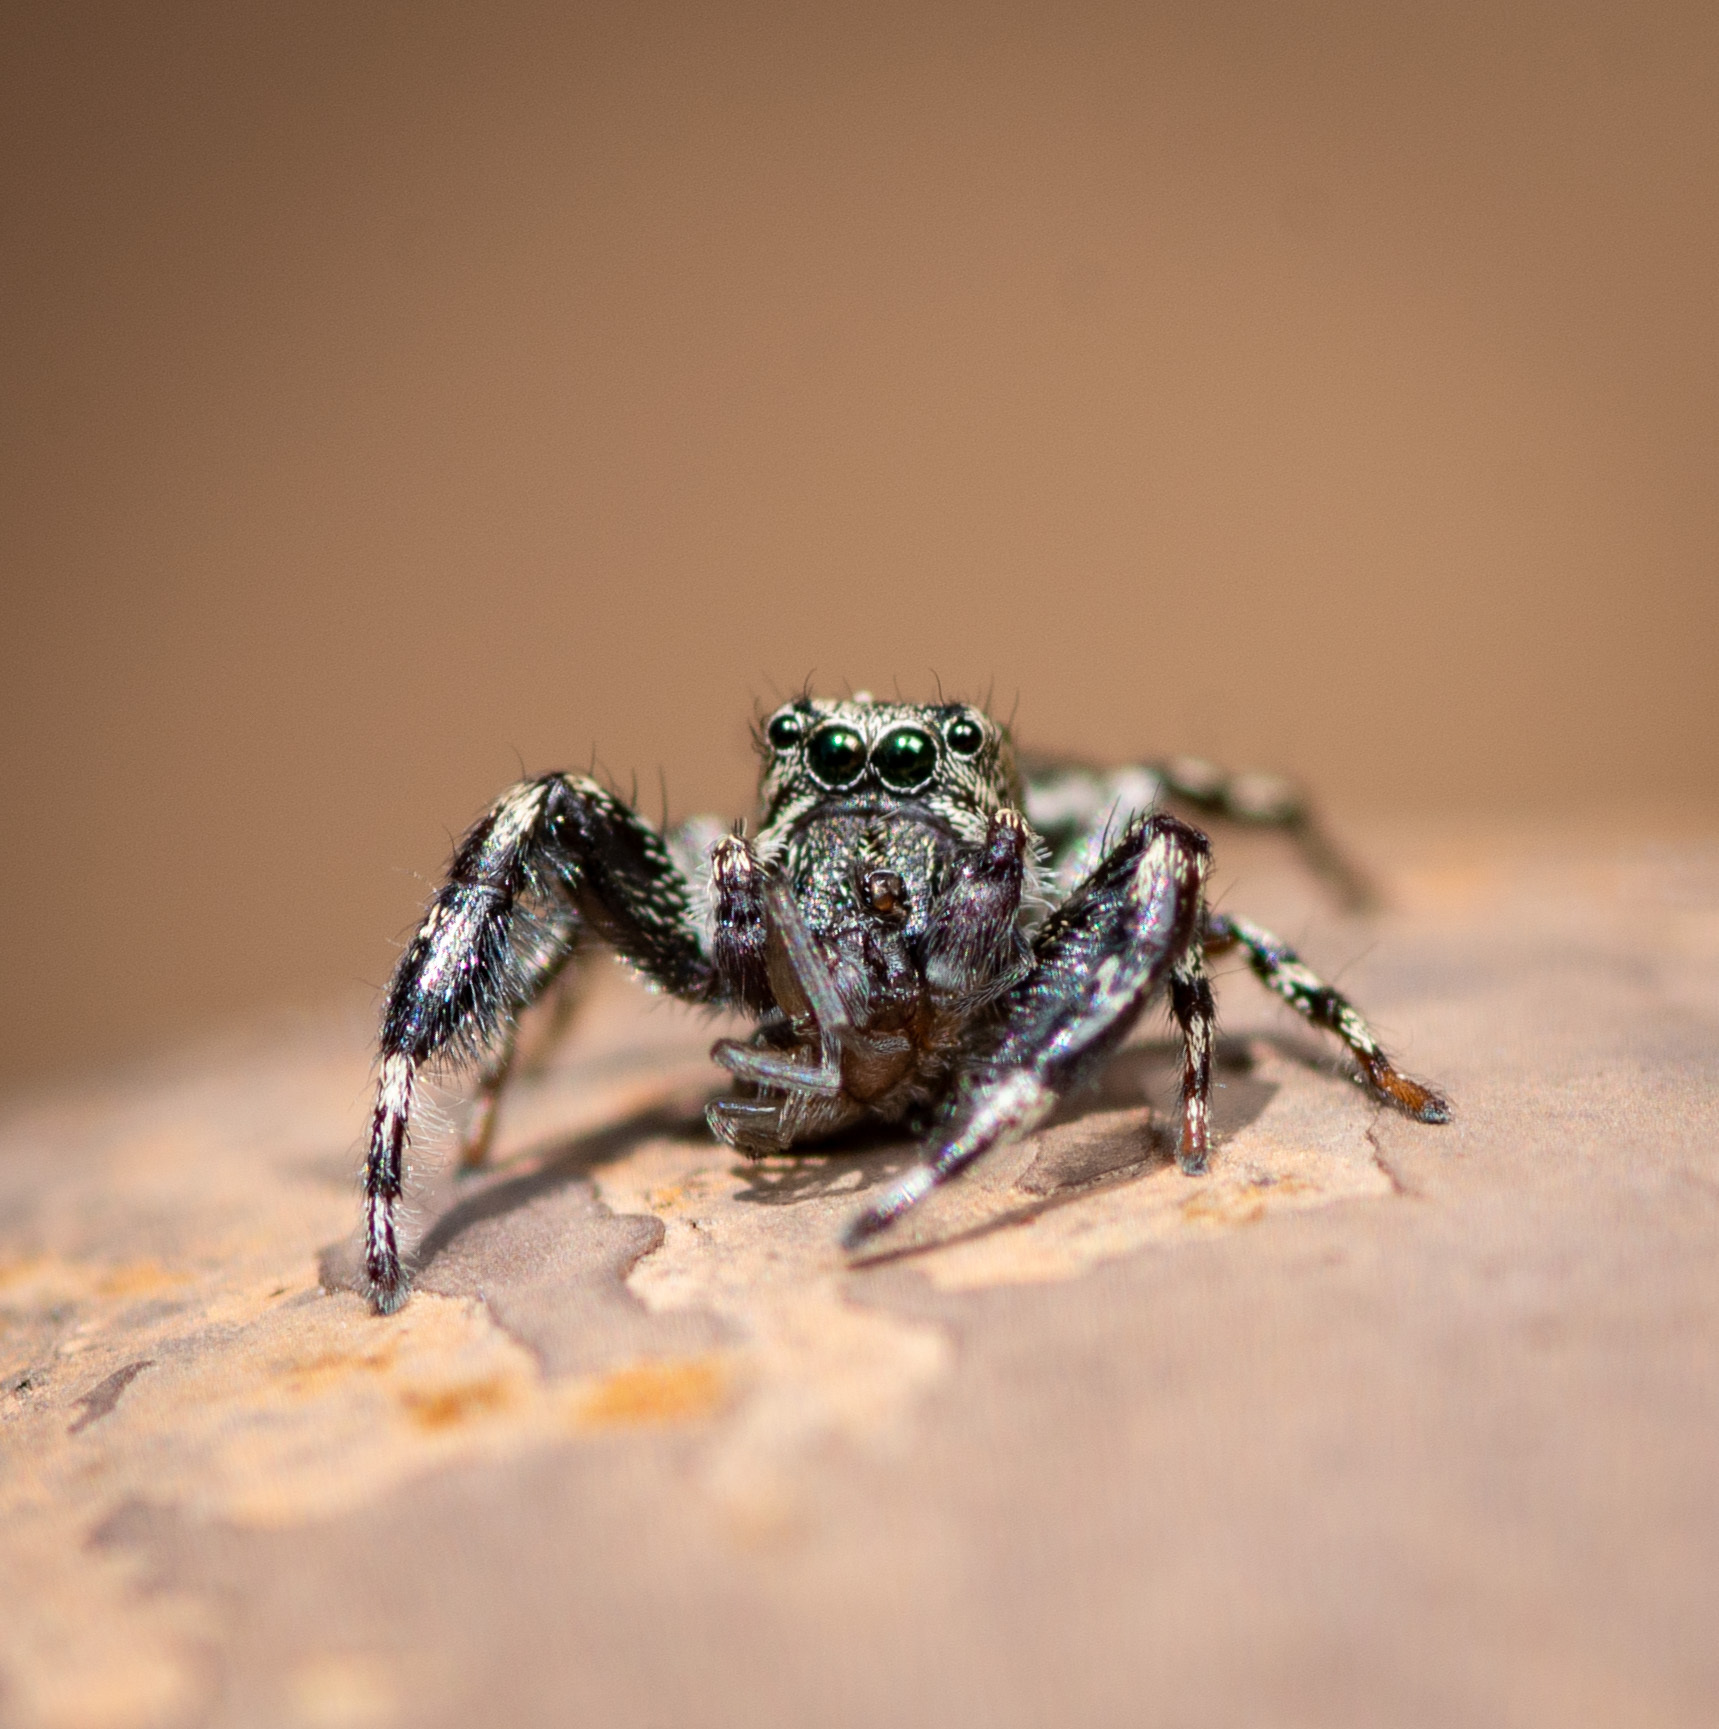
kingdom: Animalia
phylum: Arthropoda
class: Arachnida
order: Araneae
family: Salticidae
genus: Tutelina
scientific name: Tutelina harti
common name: Hart's jumping spider
